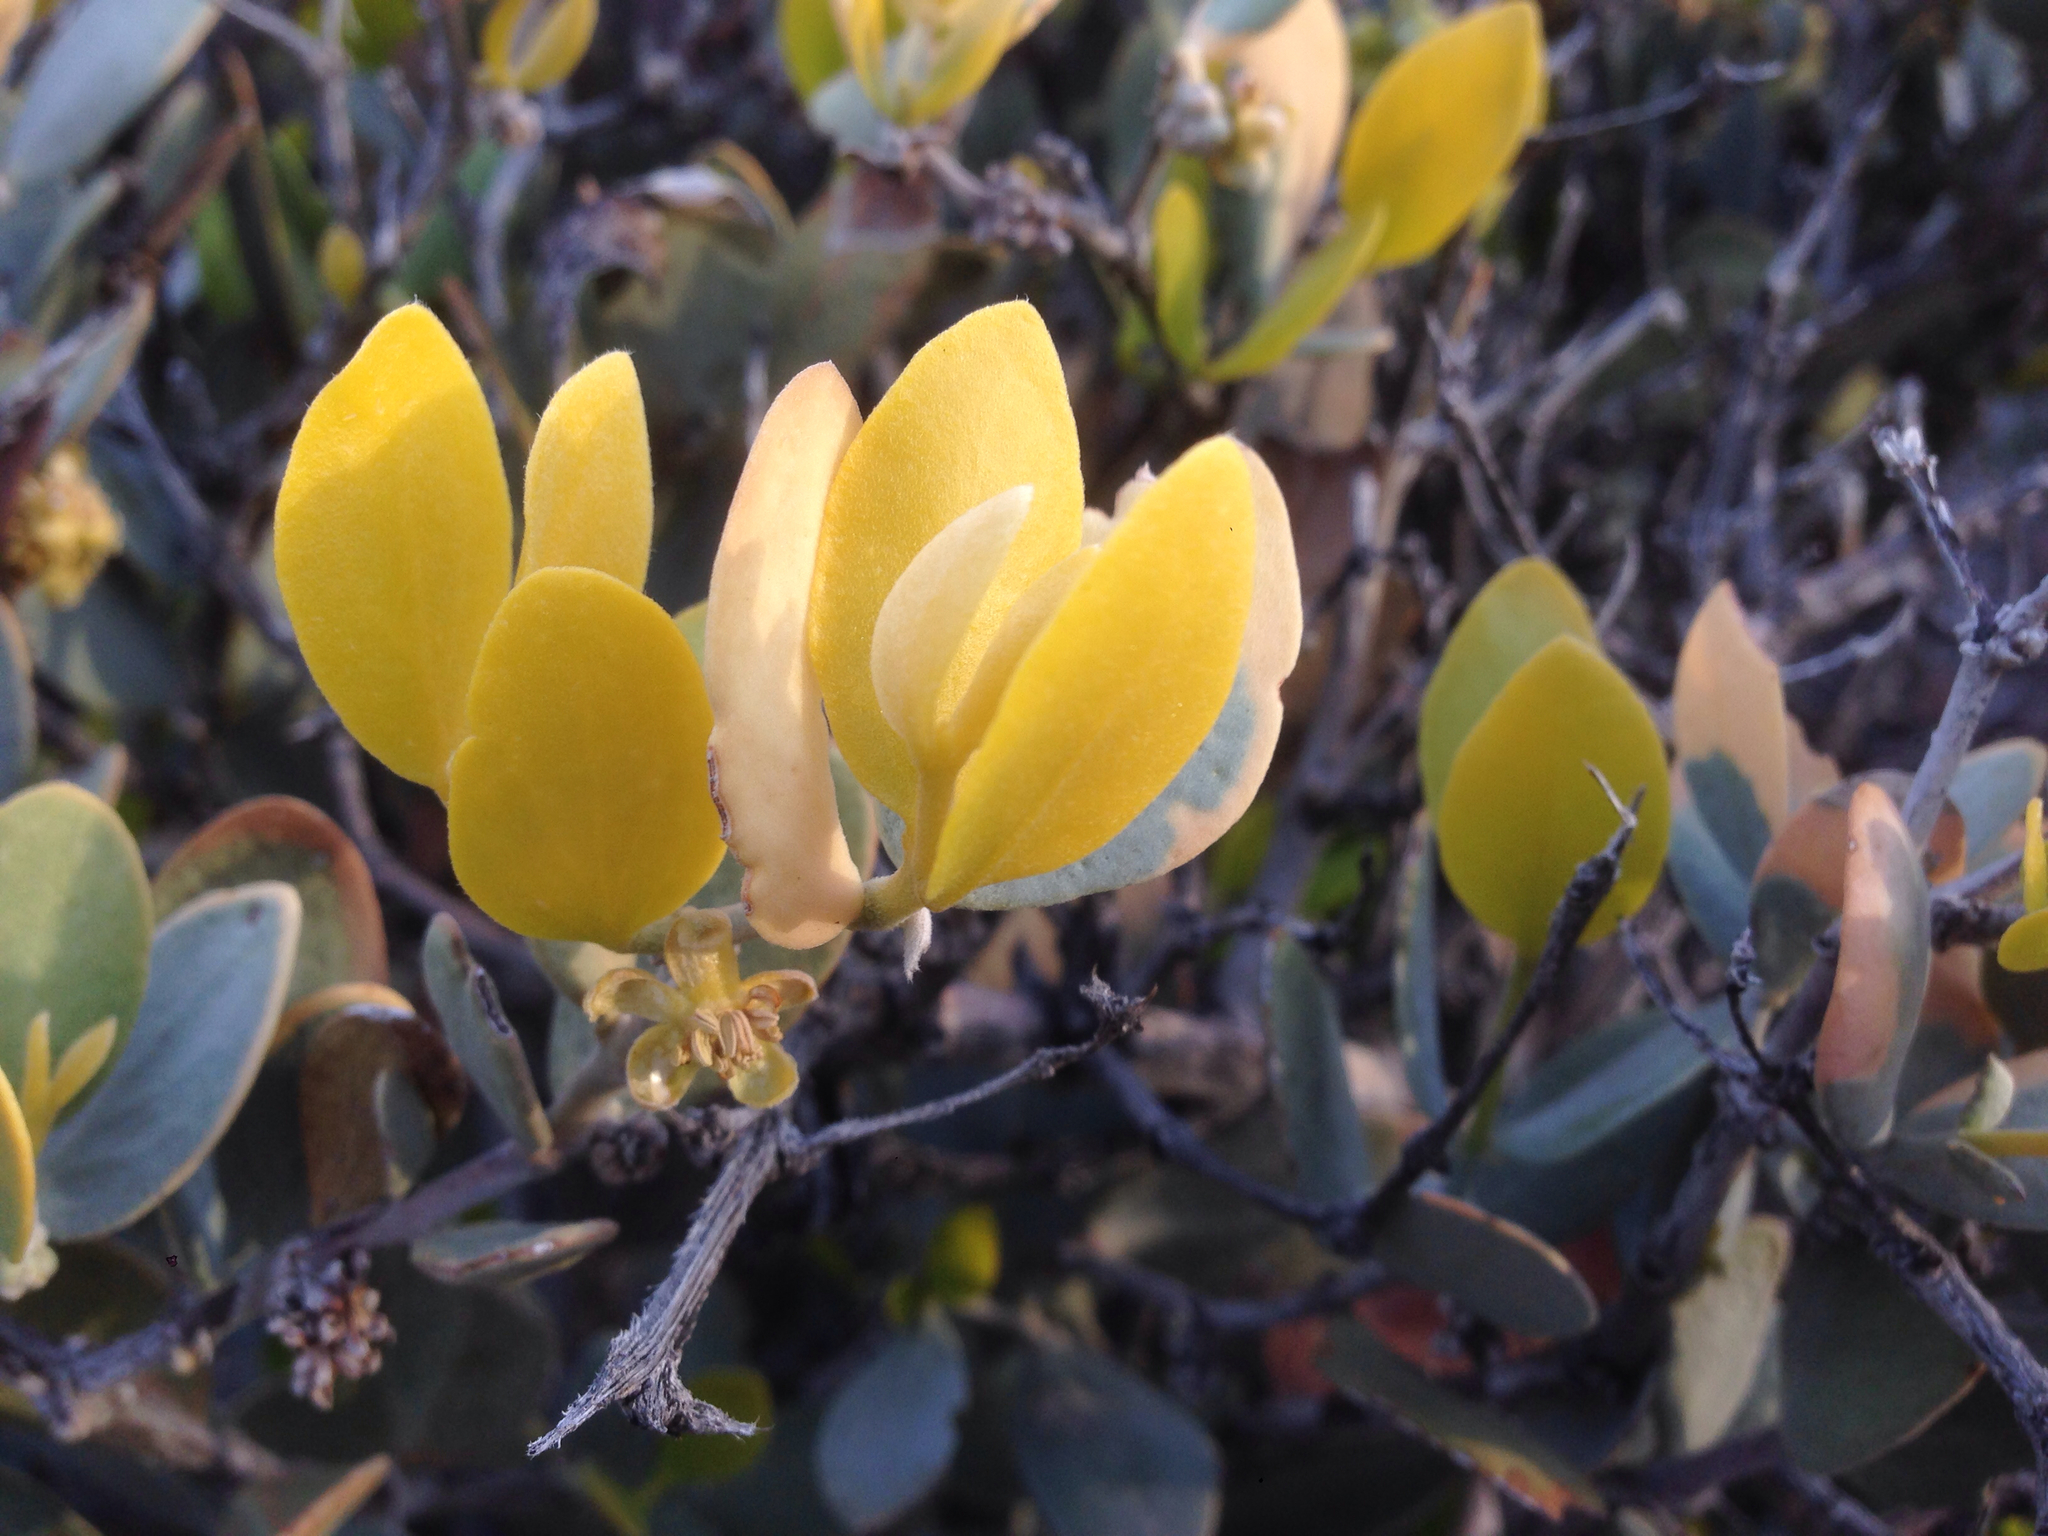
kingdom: Plantae
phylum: Tracheophyta
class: Magnoliopsida
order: Caryophyllales
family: Simmondsiaceae
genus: Simmondsia
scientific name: Simmondsia chinensis
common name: Jojoba
